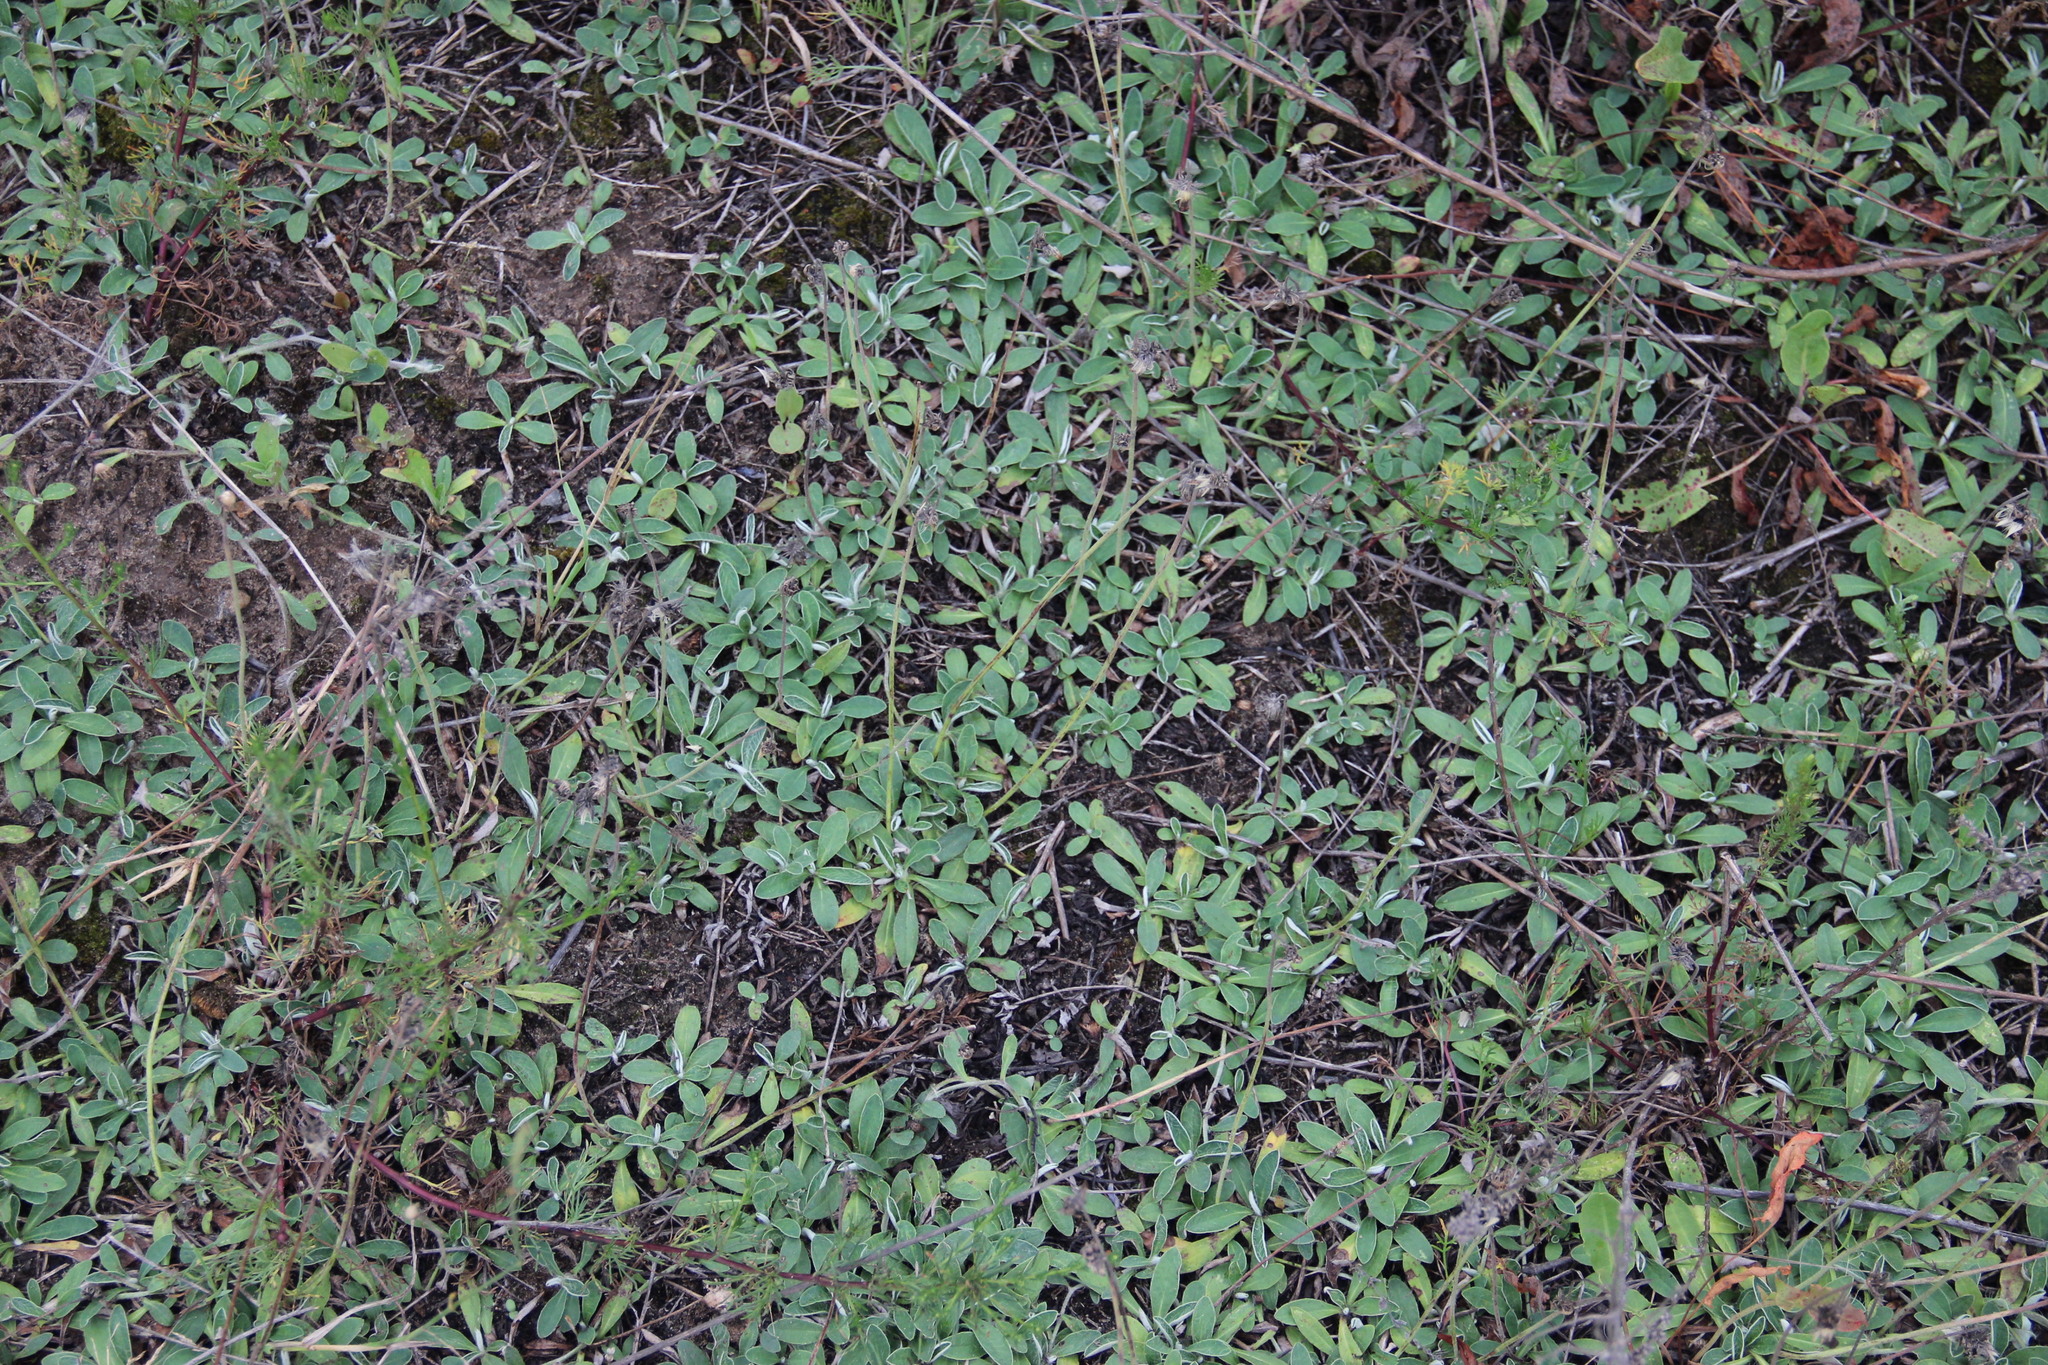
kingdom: Plantae
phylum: Tracheophyta
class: Magnoliopsida
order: Asterales
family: Asteraceae
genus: Pilosella
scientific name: Pilosella officinarum
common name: Mouse-ear hawkweed
